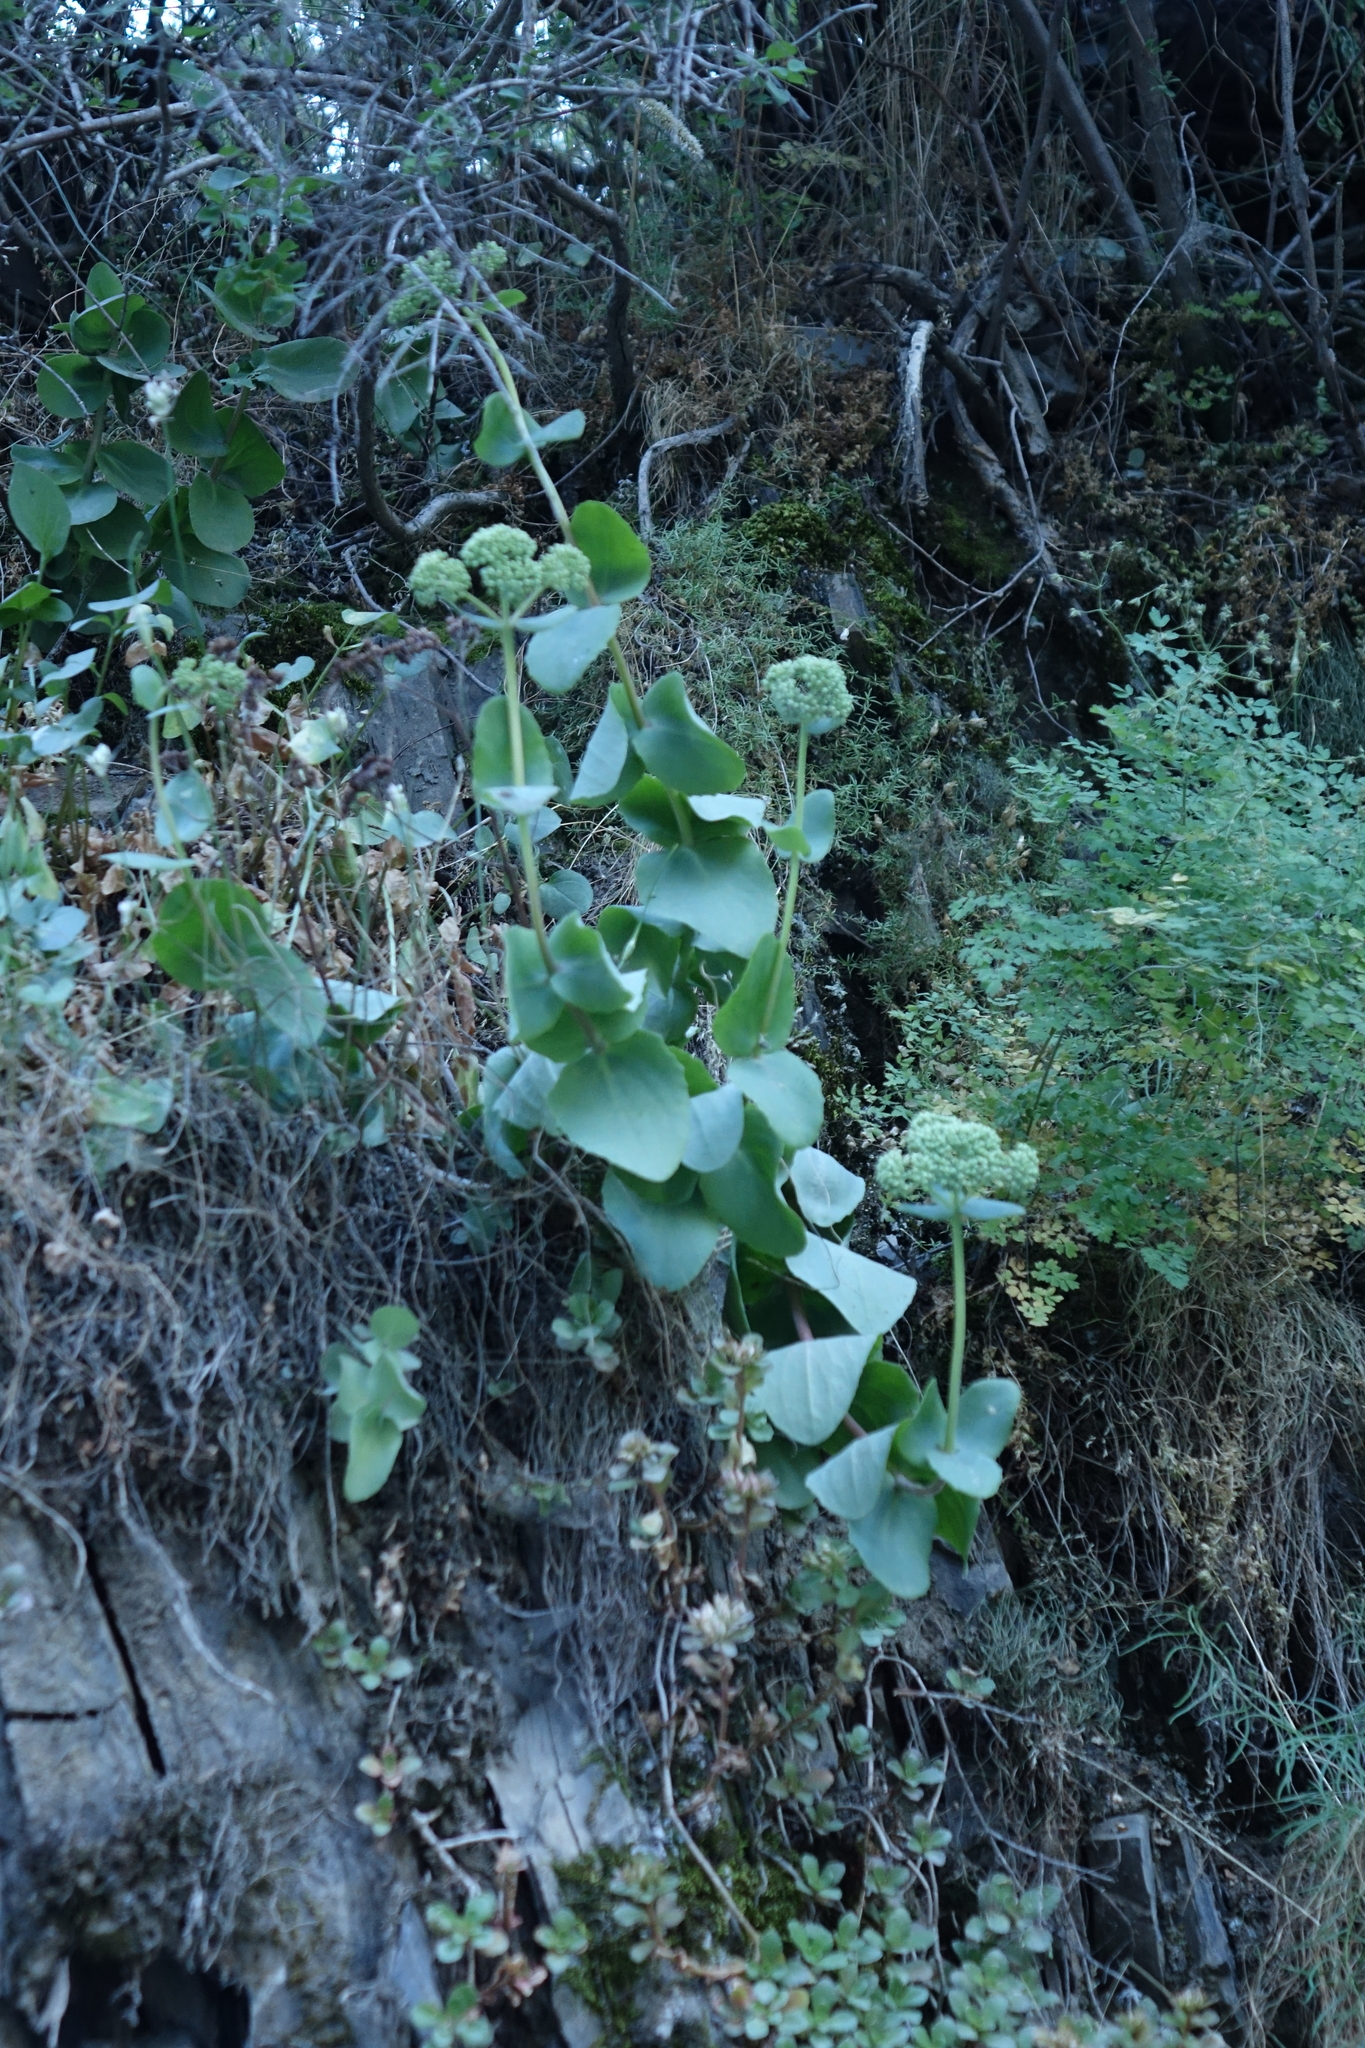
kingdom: Plantae
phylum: Tracheophyta
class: Magnoliopsida
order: Saxifragales
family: Crassulaceae
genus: Hylotelephium
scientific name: Hylotelephium maximum
